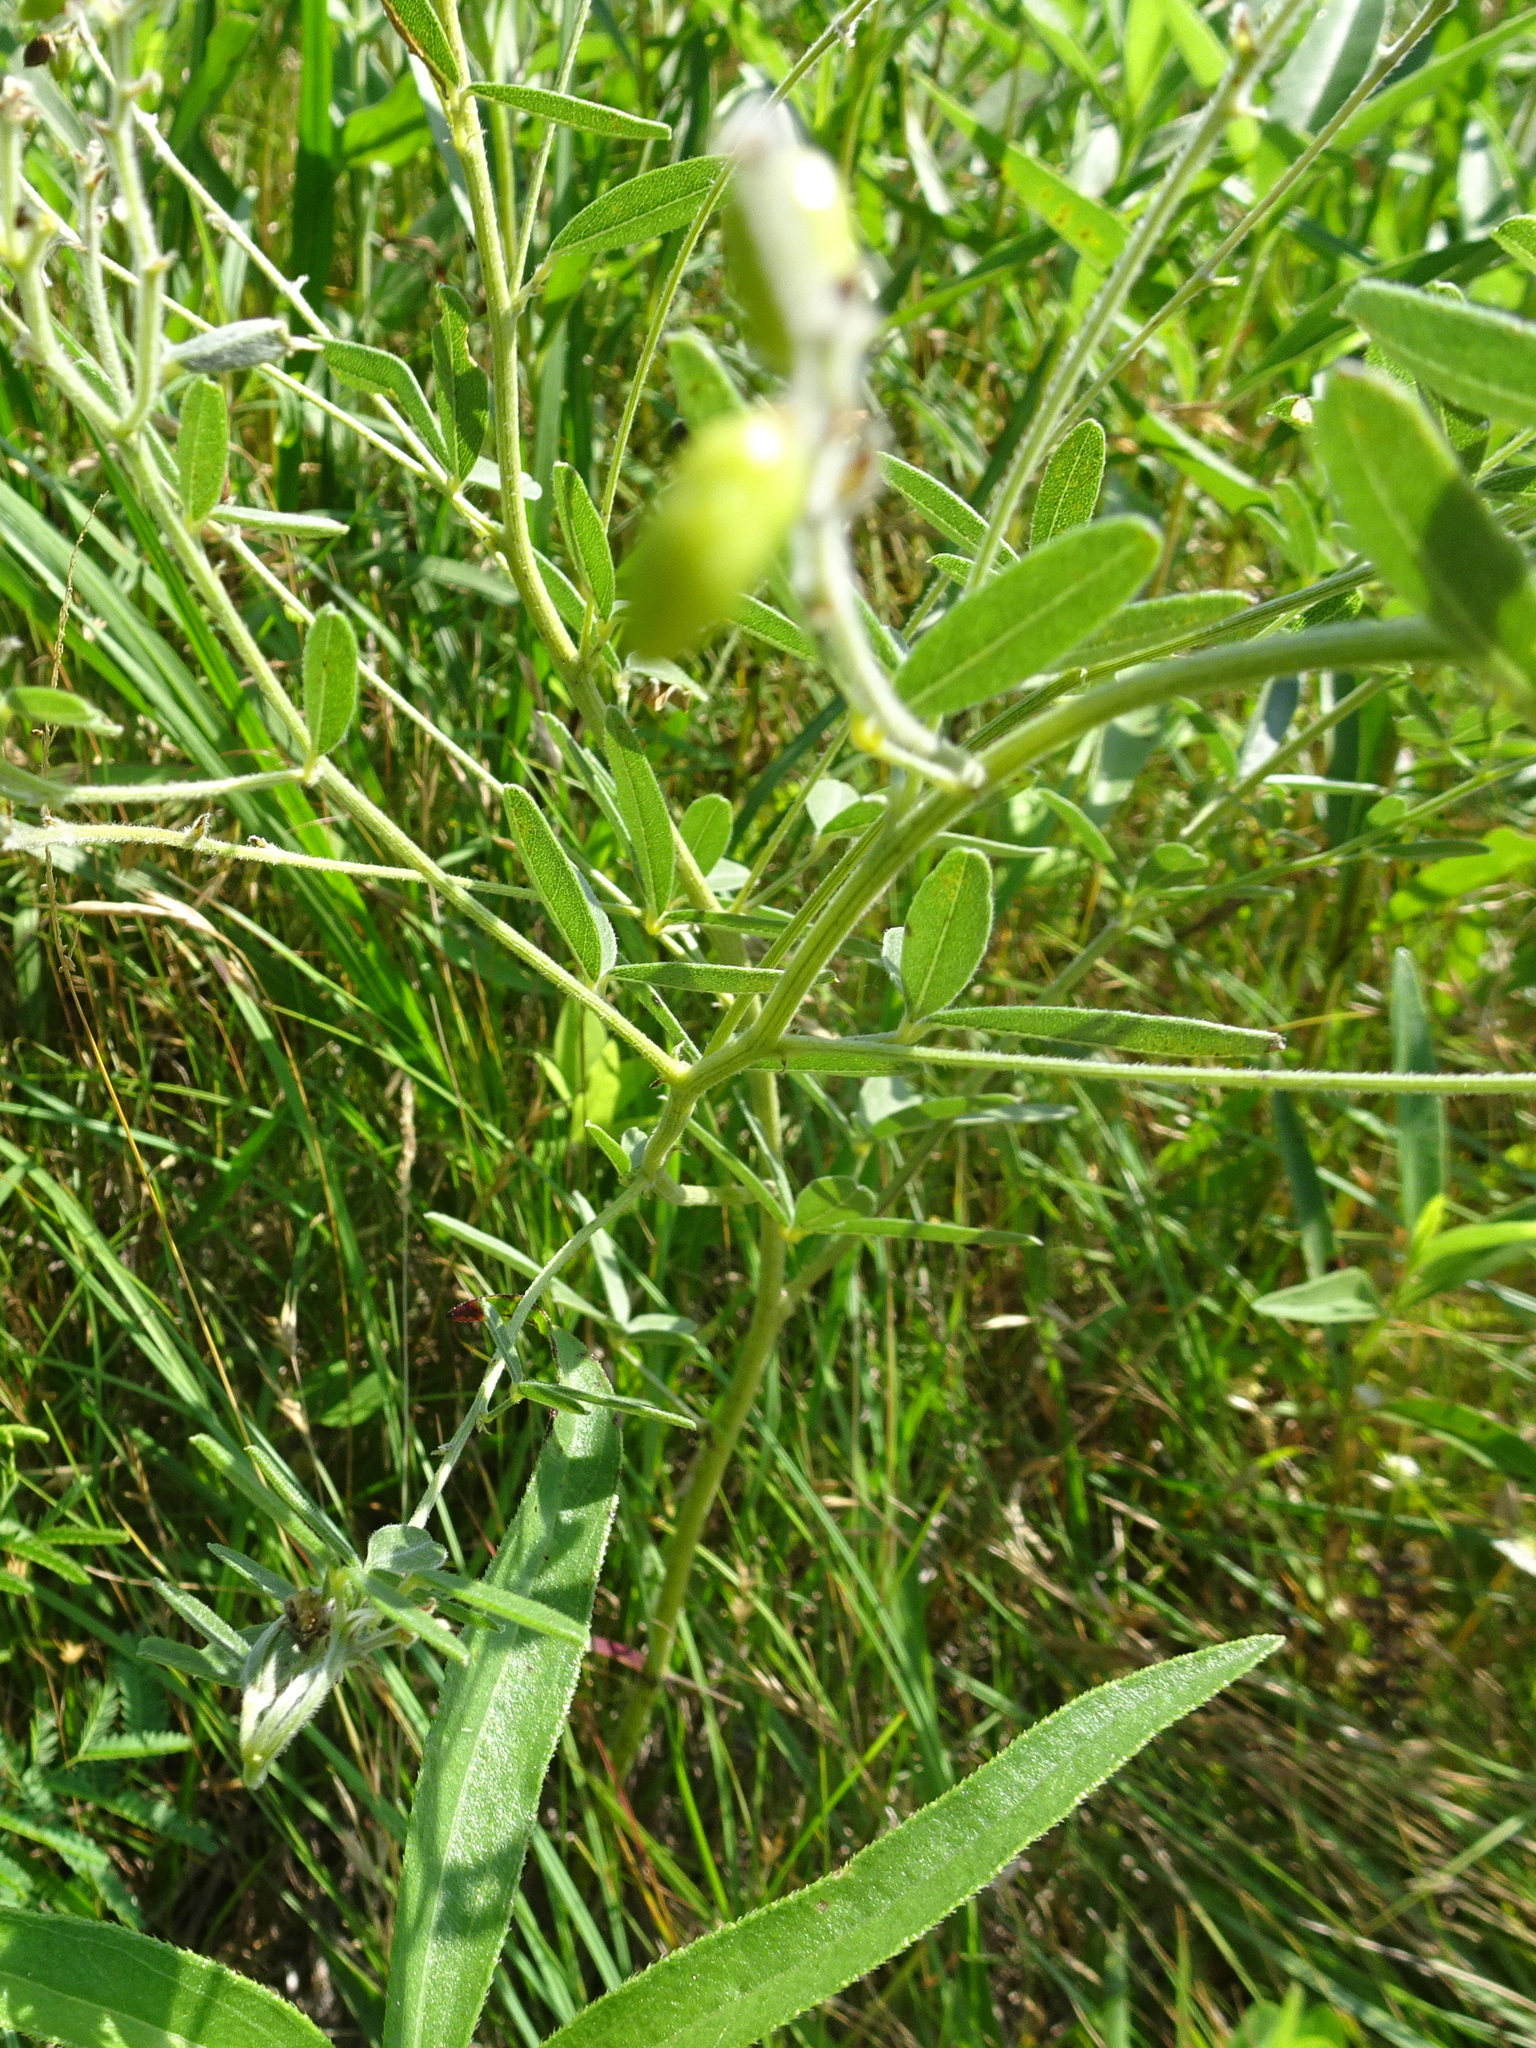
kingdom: Plantae
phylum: Tracheophyta
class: Magnoliopsida
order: Fabales
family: Fabaceae
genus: Pediomelum
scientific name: Pediomelum tenuiflorum
